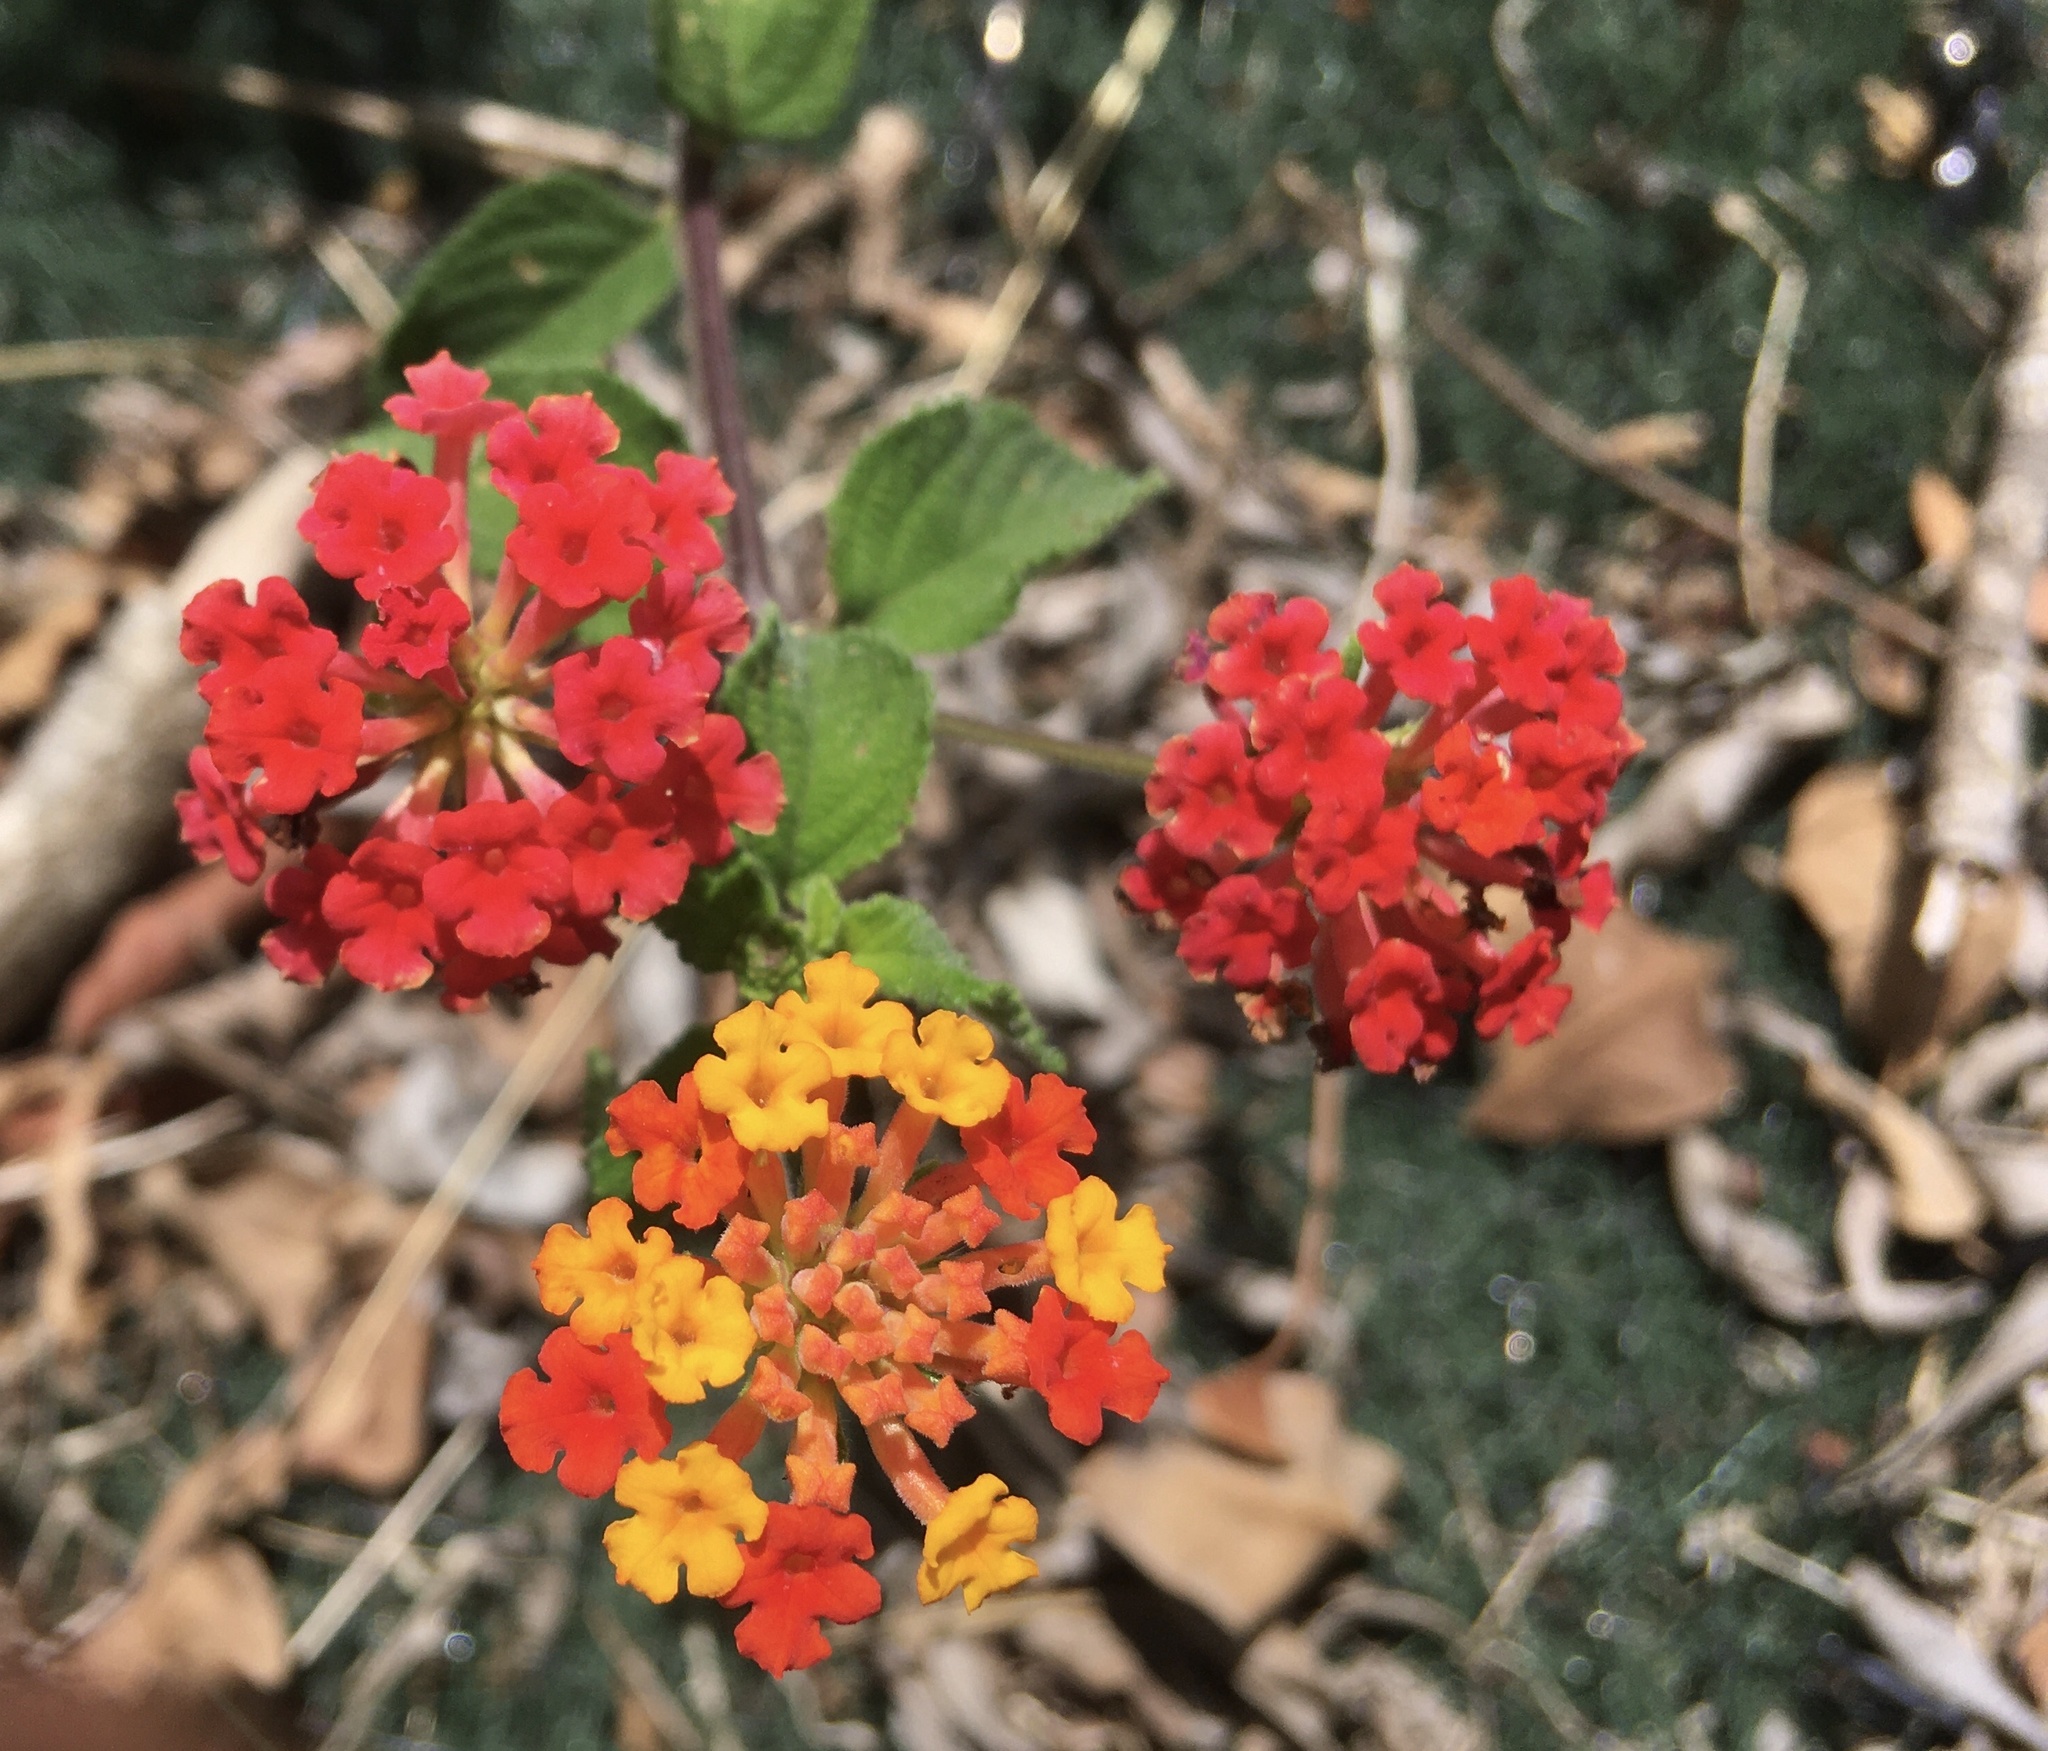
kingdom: Plantae
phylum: Tracheophyta
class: Magnoliopsida
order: Lamiales
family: Verbenaceae
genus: Lantana
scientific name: Lantana camara
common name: Lantana
